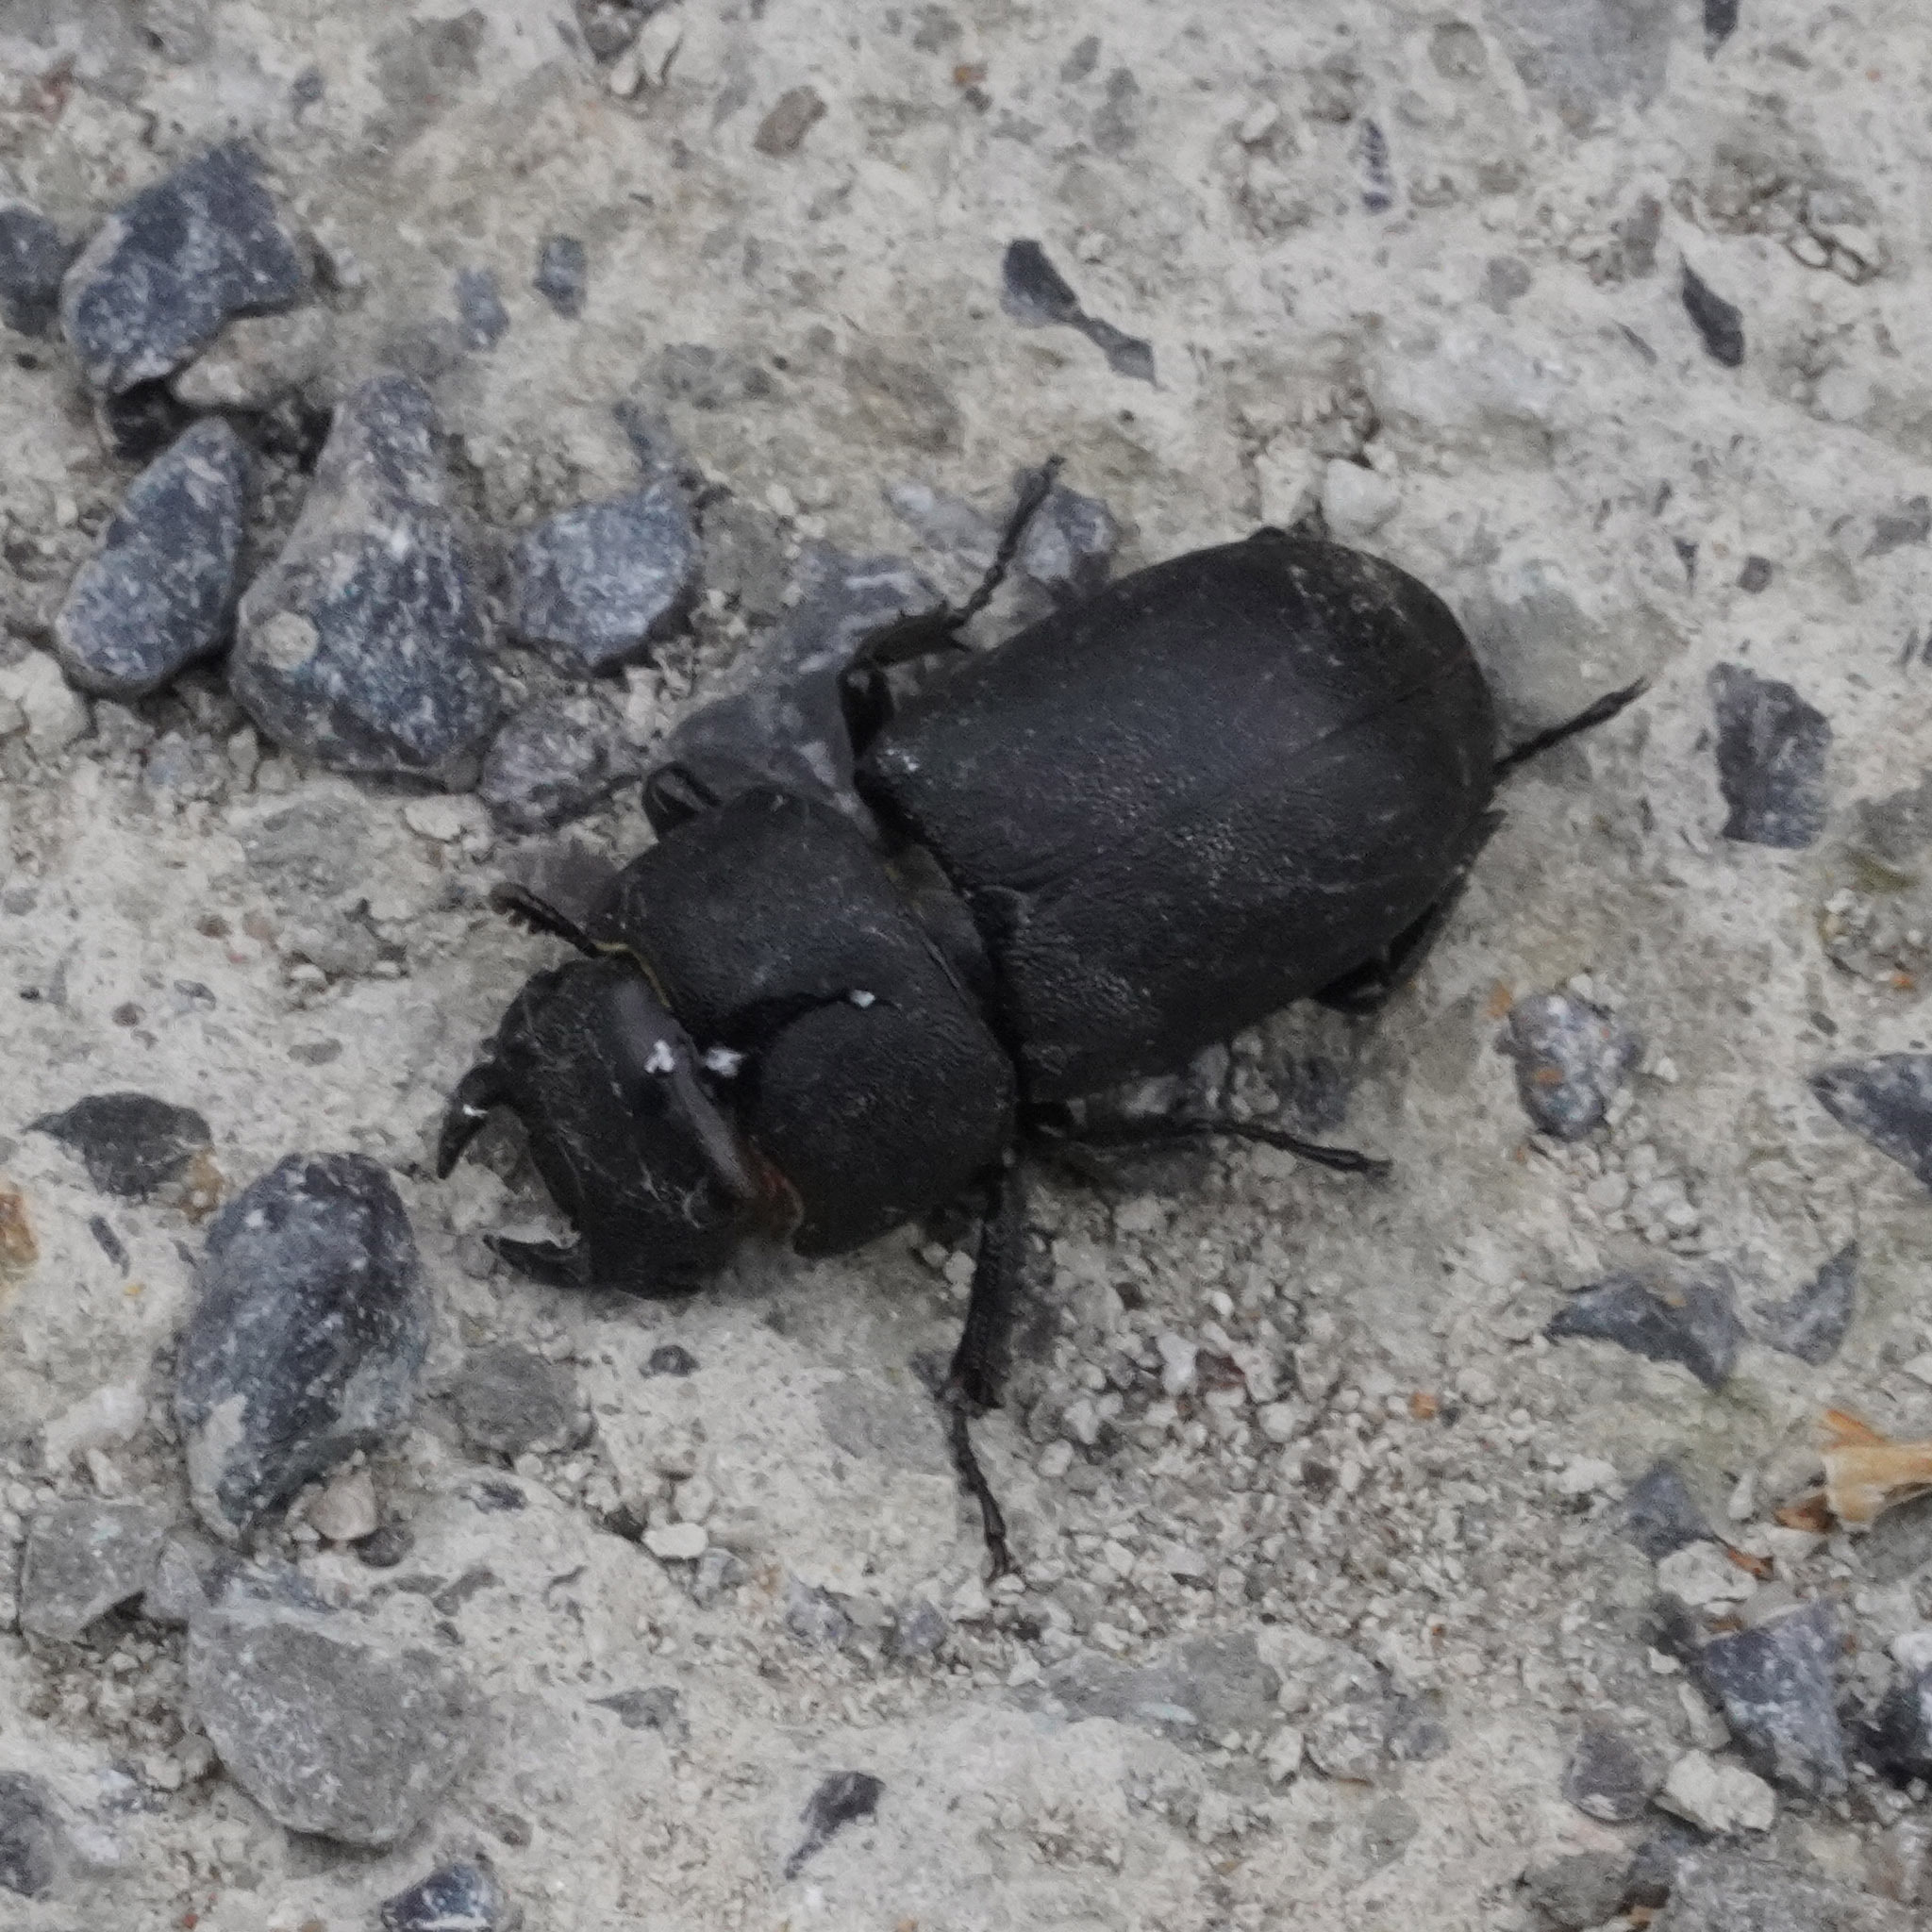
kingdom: Animalia
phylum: Arthropoda
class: Insecta
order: Coleoptera
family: Lucanidae
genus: Dorcus
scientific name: Dorcus parallelipipedus
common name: Lesser stag beetle
